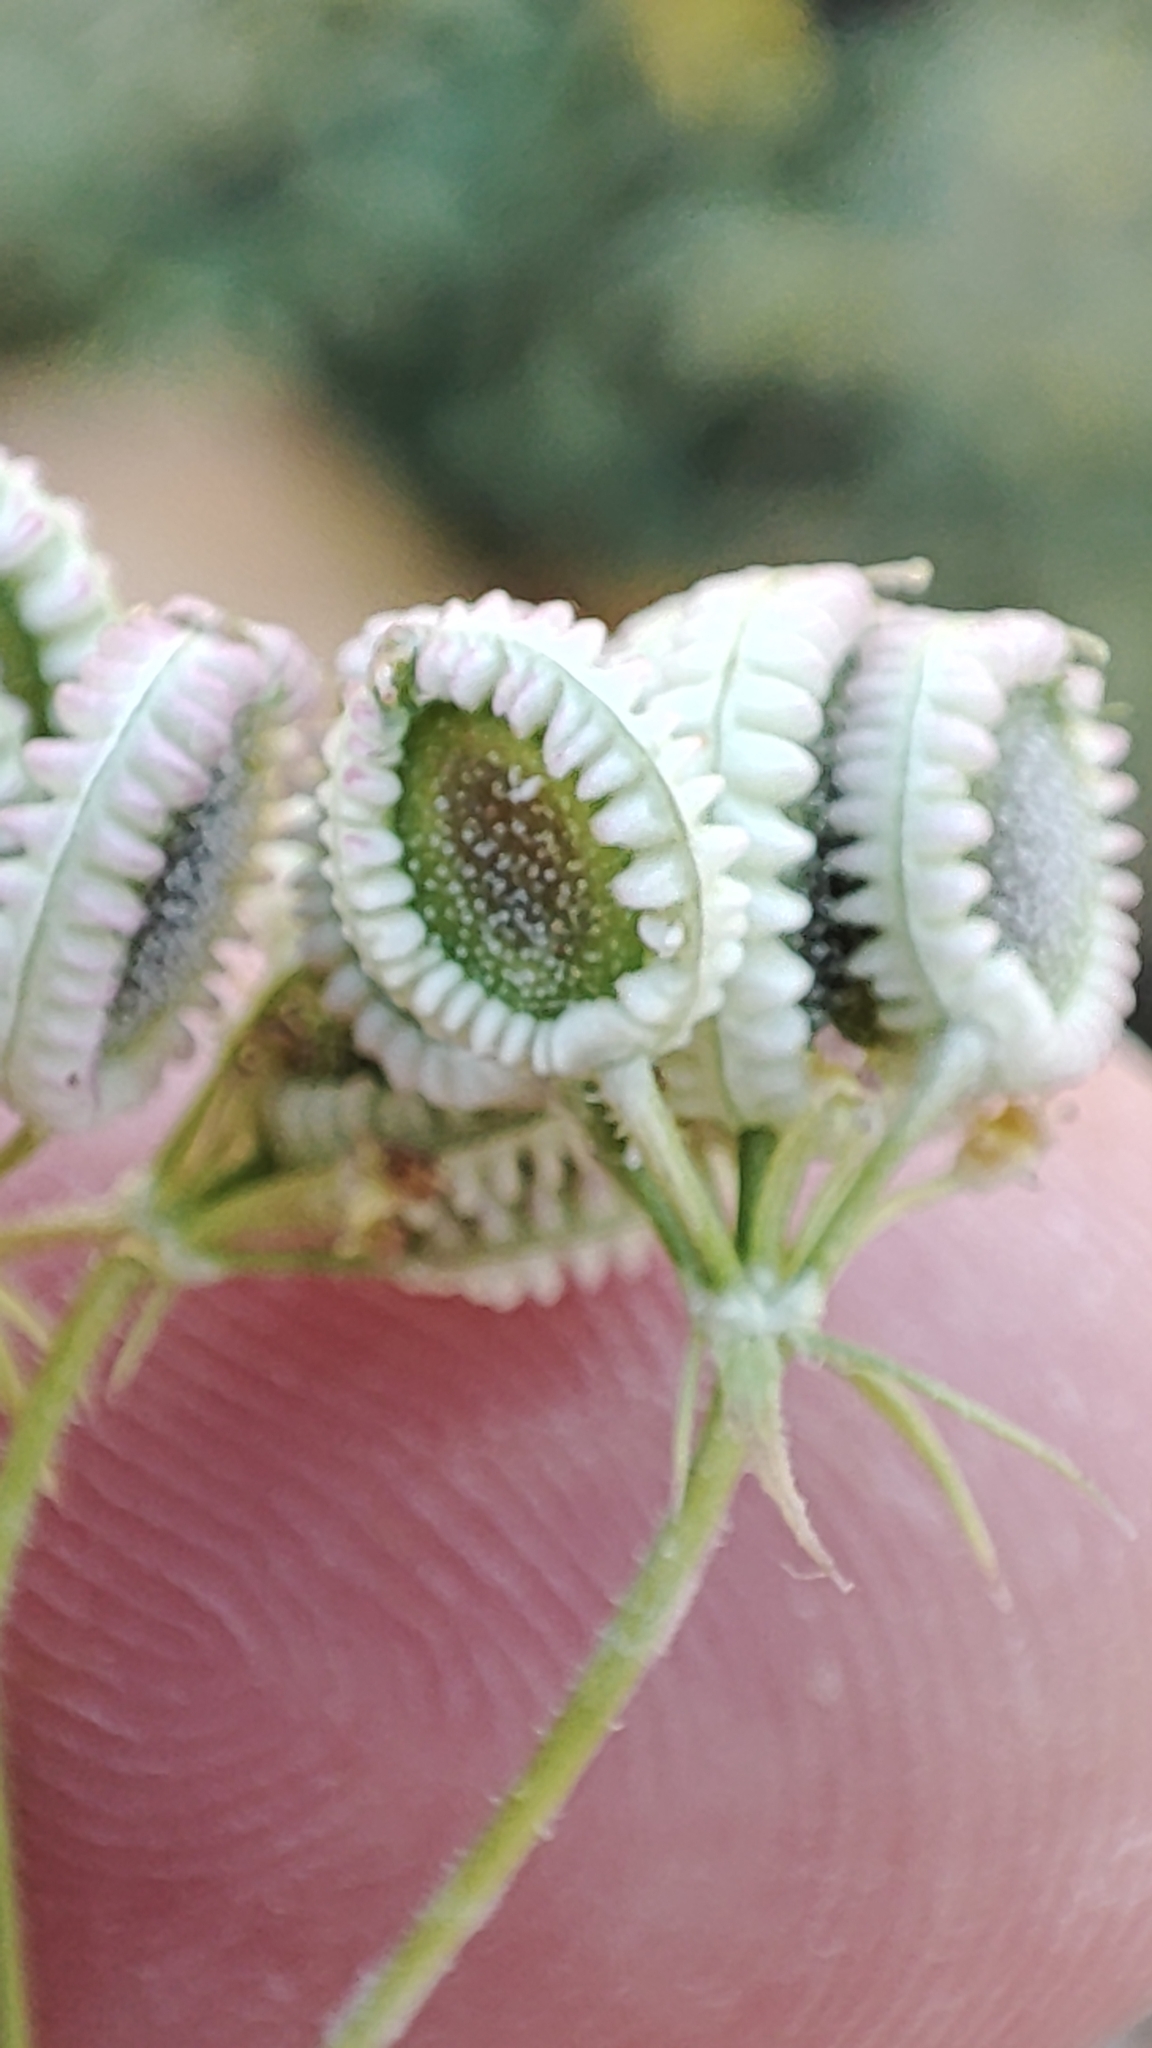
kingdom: Plantae
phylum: Tracheophyta
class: Magnoliopsida
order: Apiales
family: Apiaceae
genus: Tordylium
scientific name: Tordylium apulum
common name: Mediterranean hartwort
